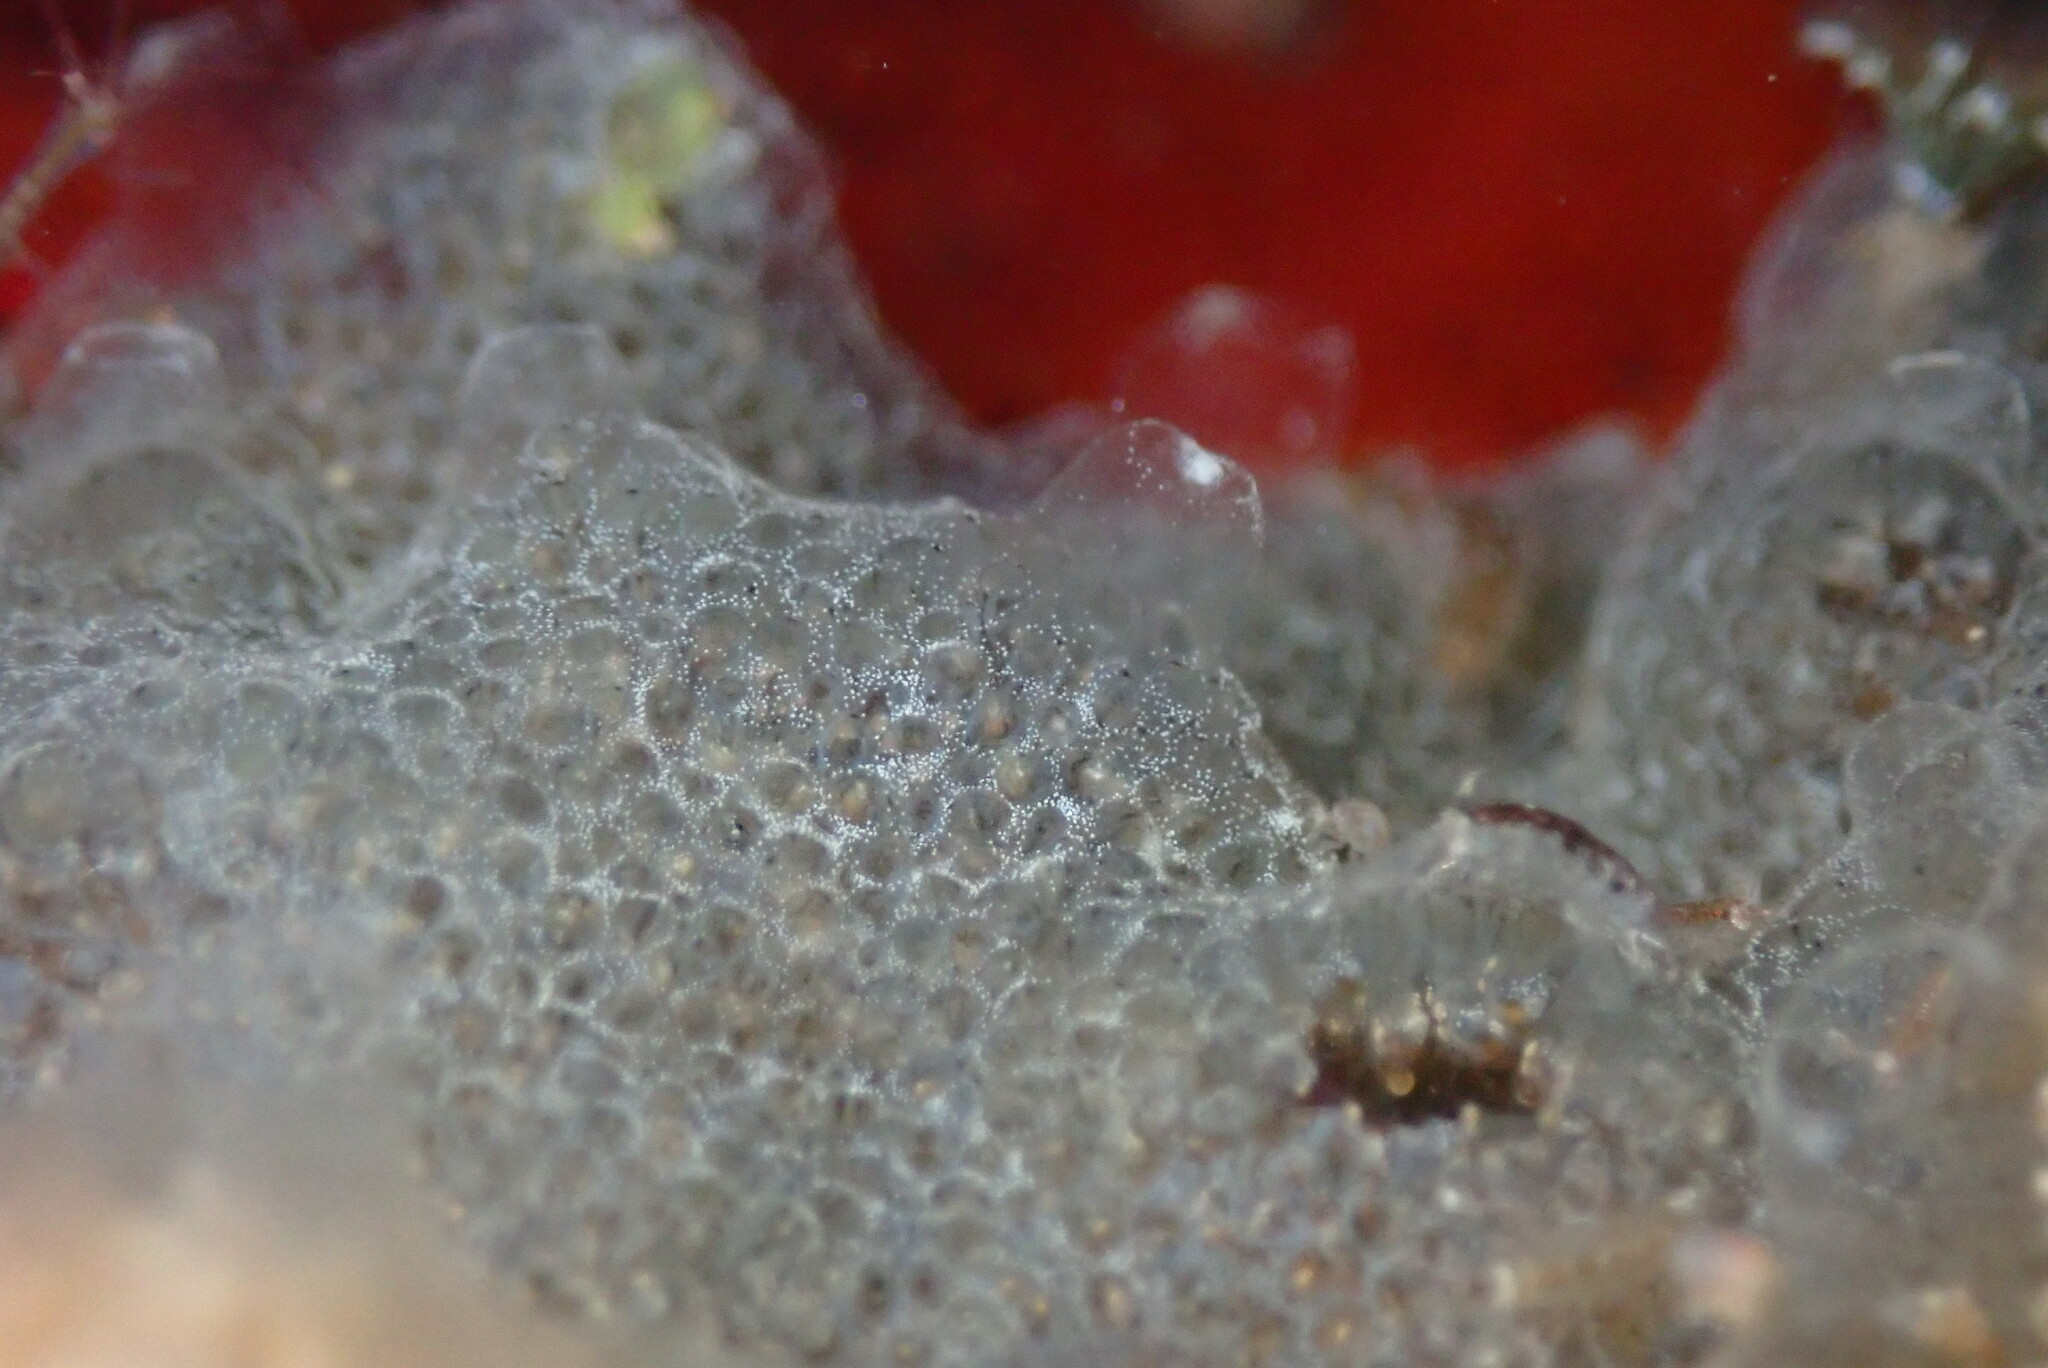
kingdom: Animalia
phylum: Chordata
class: Ascidiacea
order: Aplousobranchia
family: Didemnidae
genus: Diplosoma
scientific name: Diplosoma listerianum
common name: Compound sea squirt
